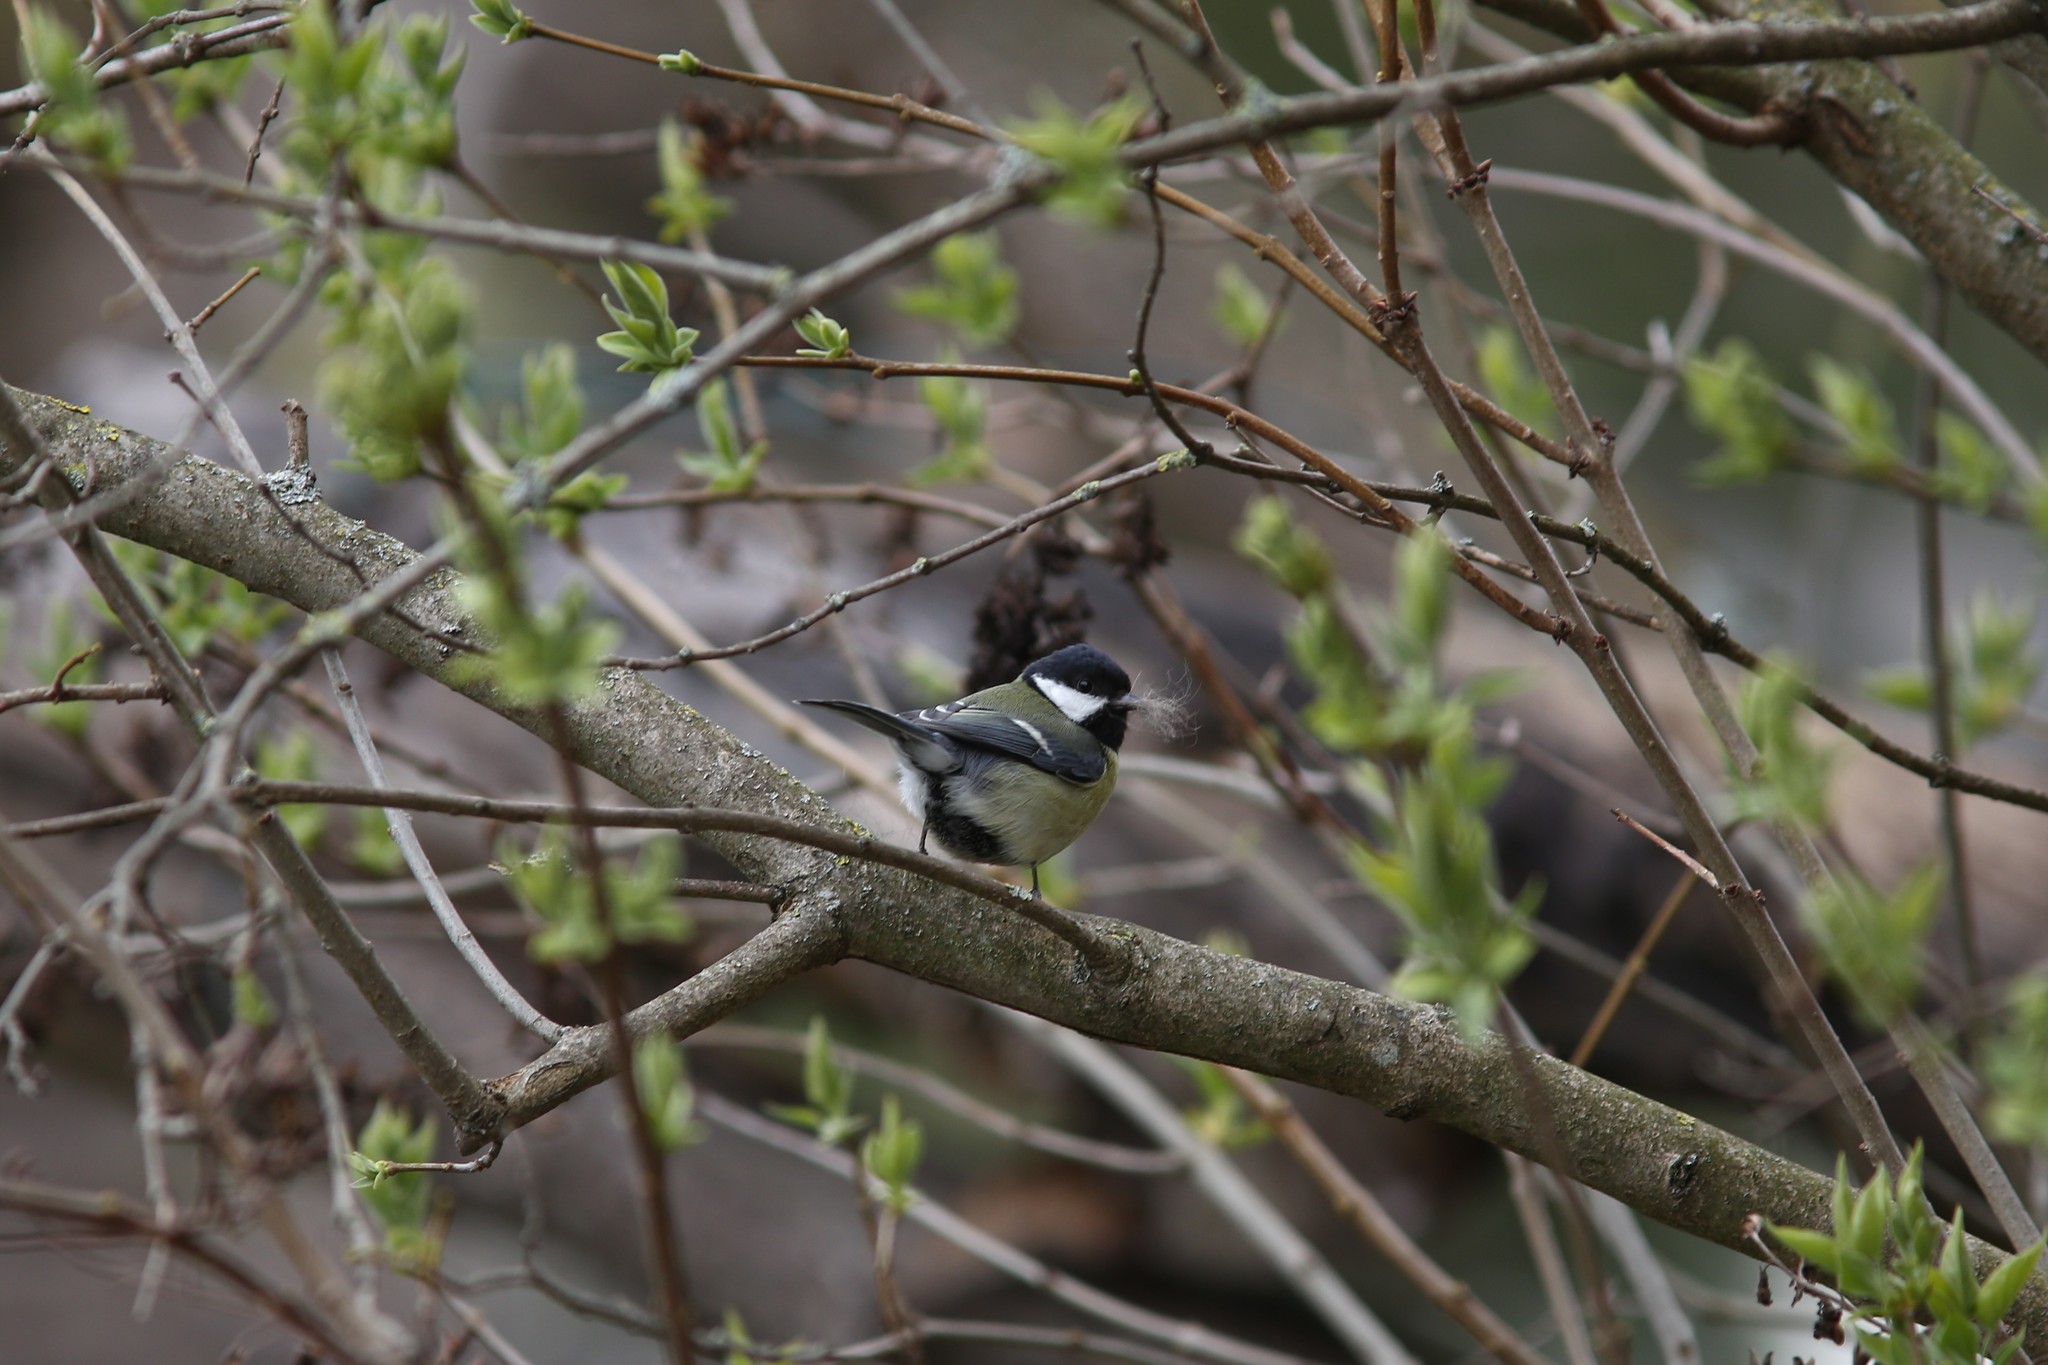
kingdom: Animalia
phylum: Chordata
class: Aves
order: Passeriformes
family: Paridae
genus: Parus
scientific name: Parus major
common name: Great tit
